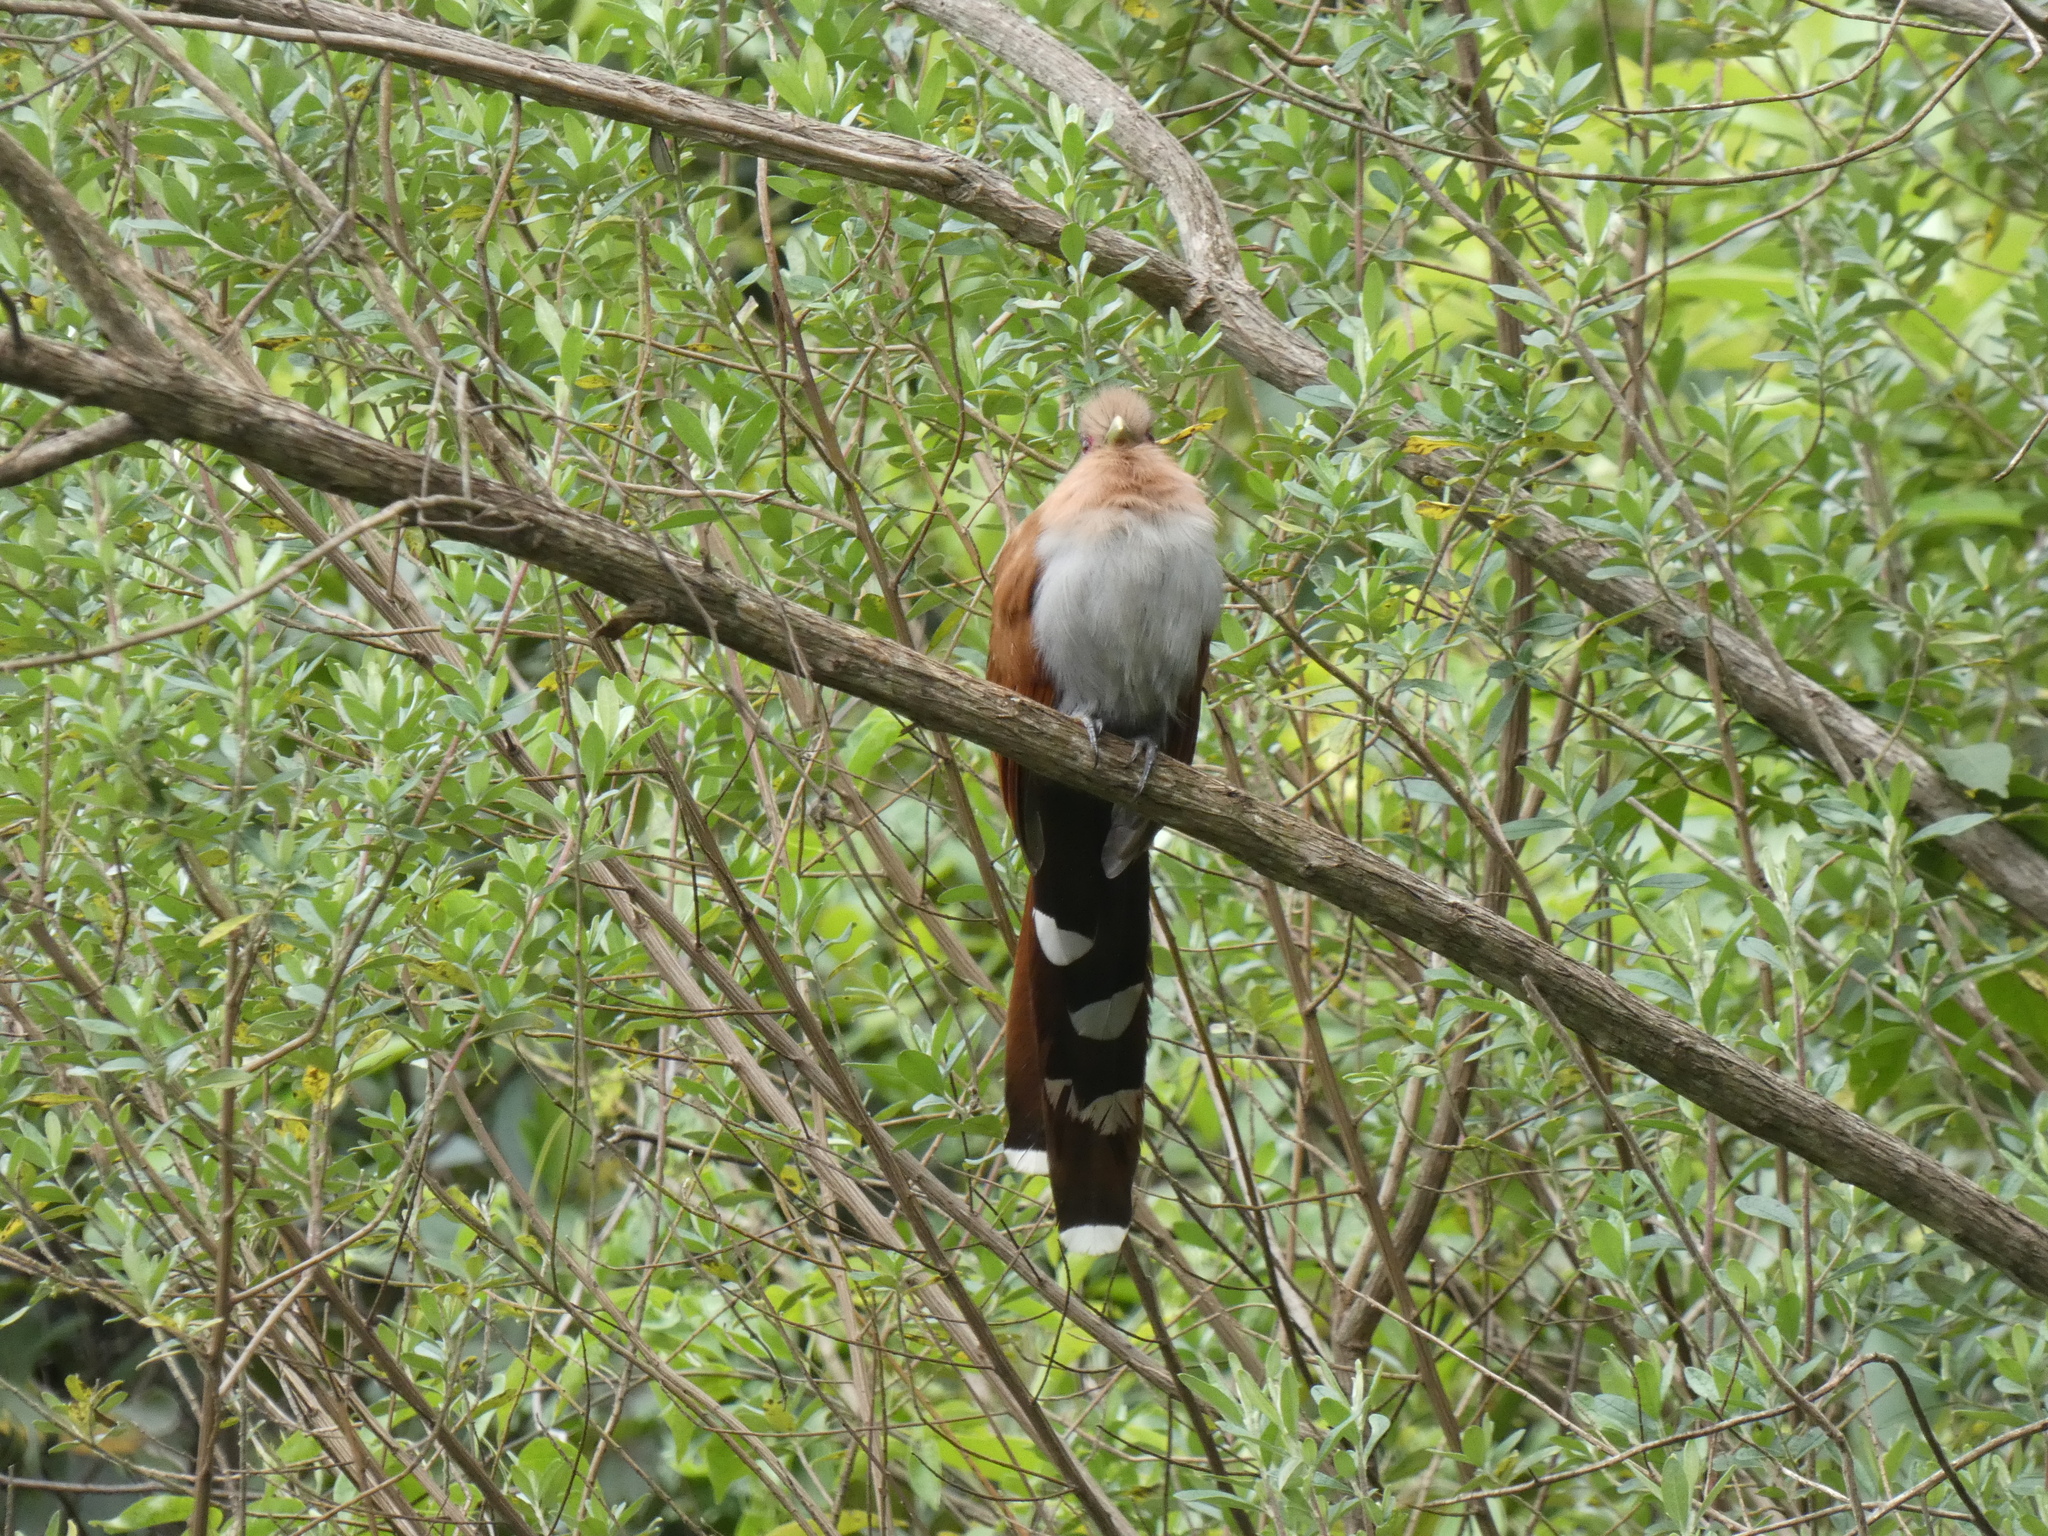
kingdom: Animalia
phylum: Chordata
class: Aves
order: Cuculiformes
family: Cuculidae
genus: Piaya
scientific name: Piaya cayana
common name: Squirrel cuckoo
